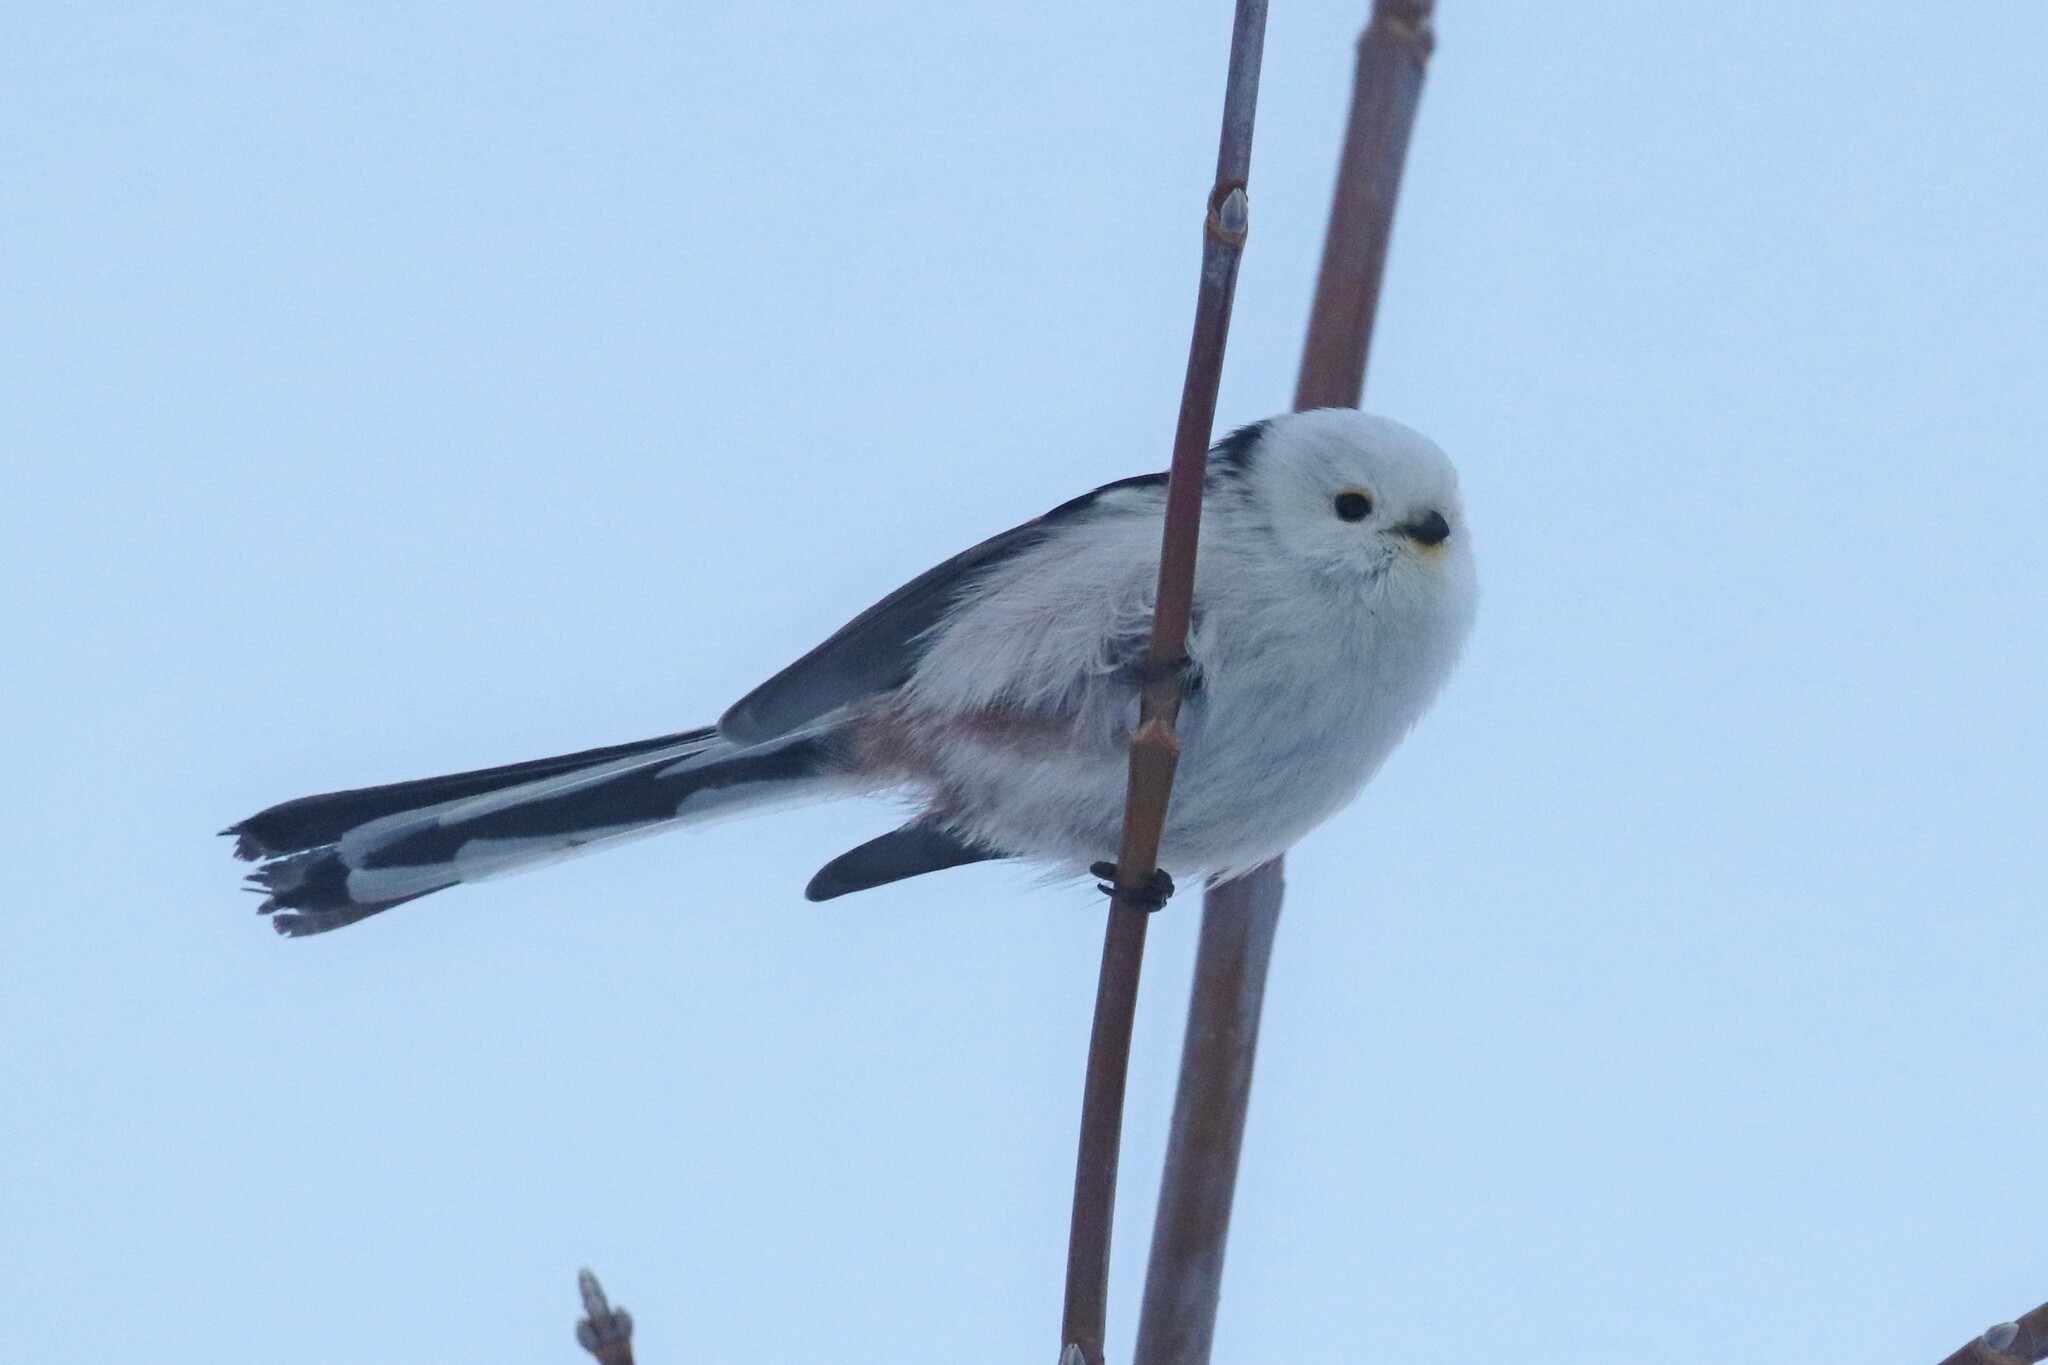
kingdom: Animalia
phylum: Chordata
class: Aves
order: Passeriformes
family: Aegithalidae
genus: Aegithalos
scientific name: Aegithalos caudatus
